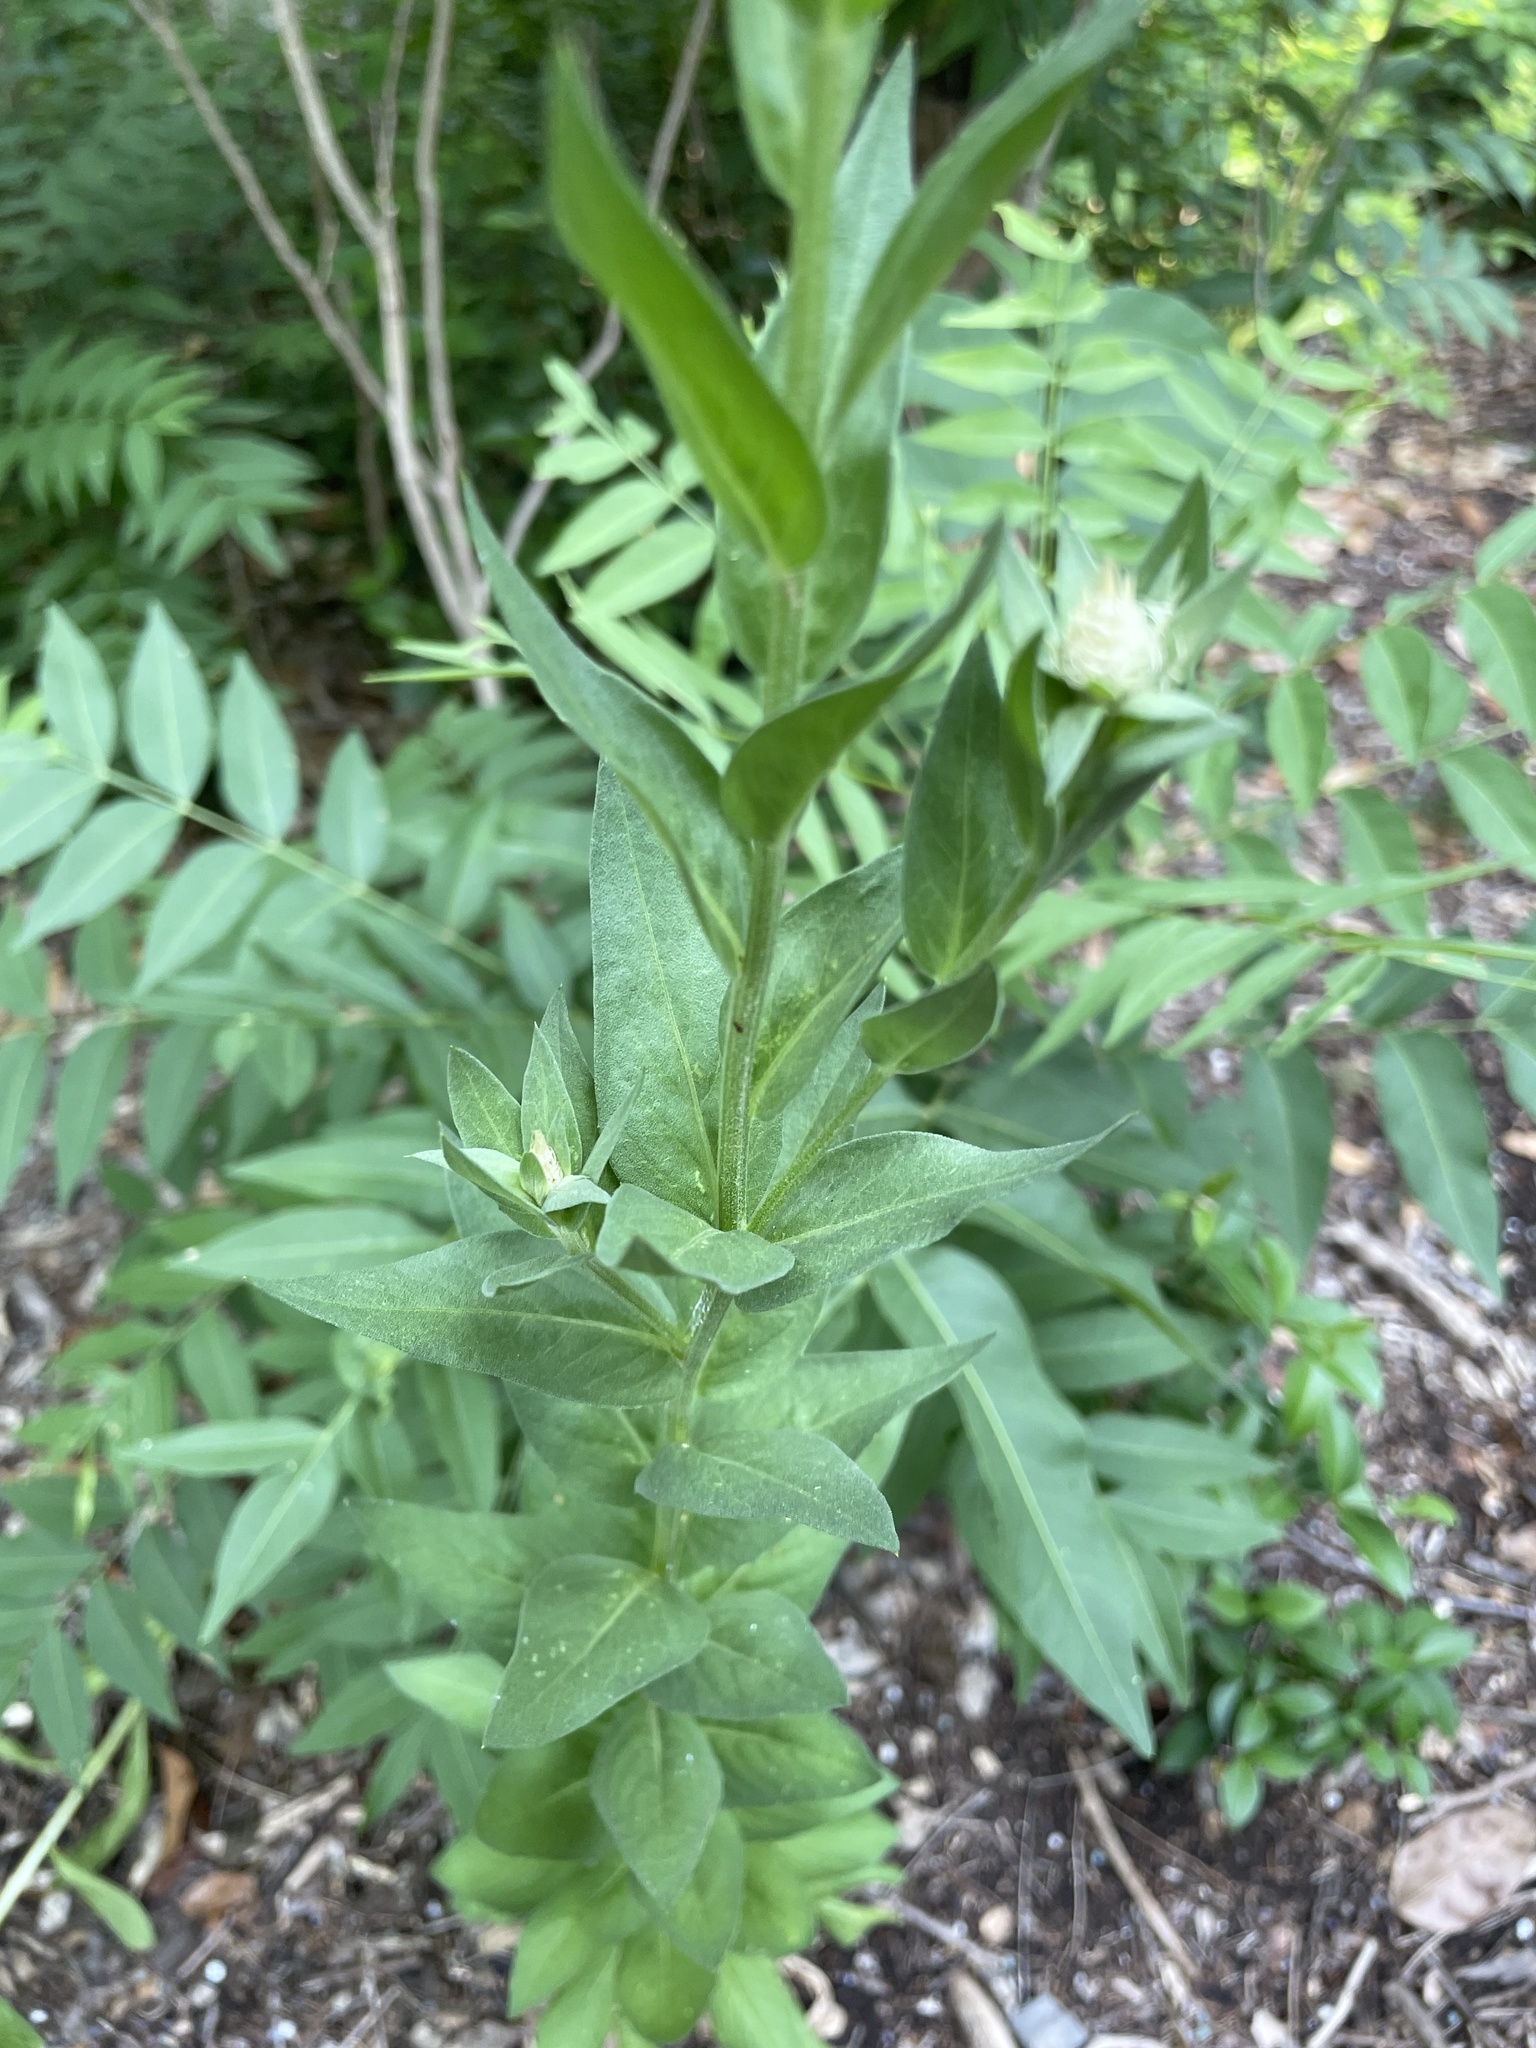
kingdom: Plantae
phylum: Tracheophyta
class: Magnoliopsida
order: Asterales
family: Asteraceae
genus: Plectocephalus
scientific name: Plectocephalus americanus
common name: American basket-flower
